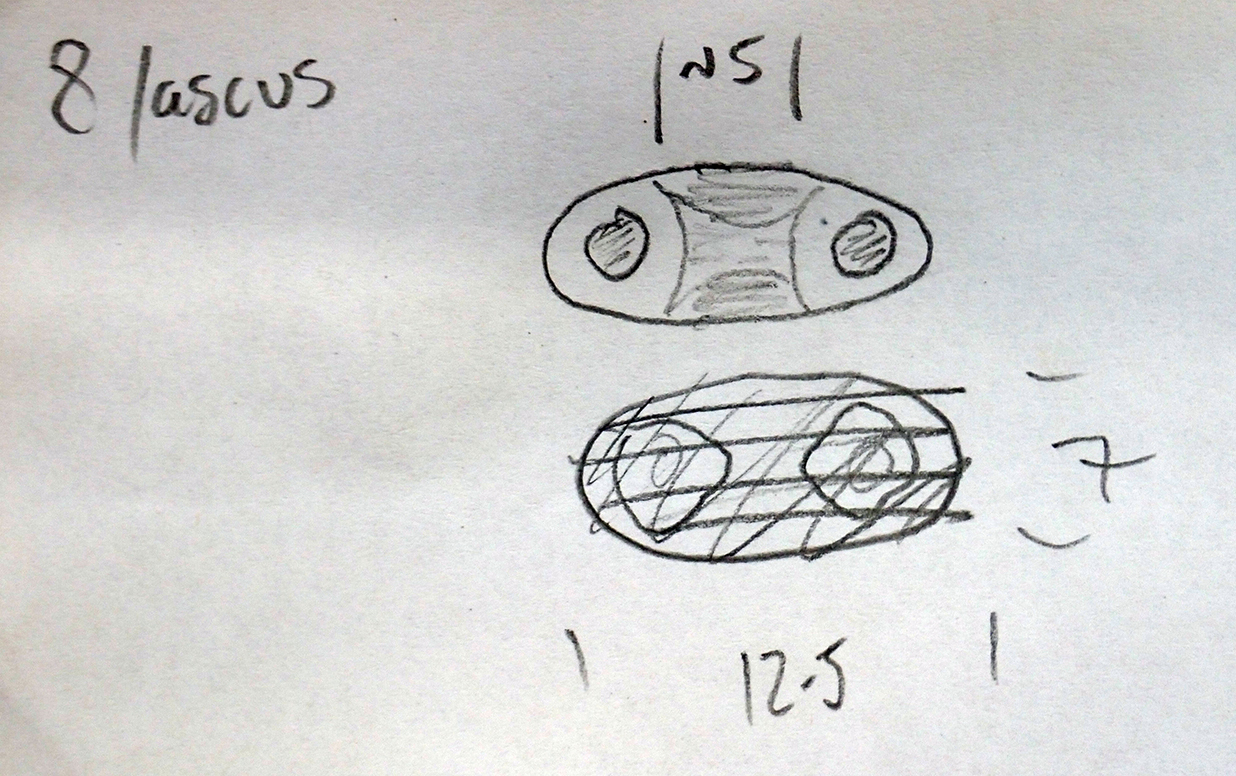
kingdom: Fungi
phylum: Ascomycota
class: Lecanoromycetes
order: Teloschistales
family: Teloschistaceae
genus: Athallia
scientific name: Athallia pyracea
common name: Flaming firedot lichen
